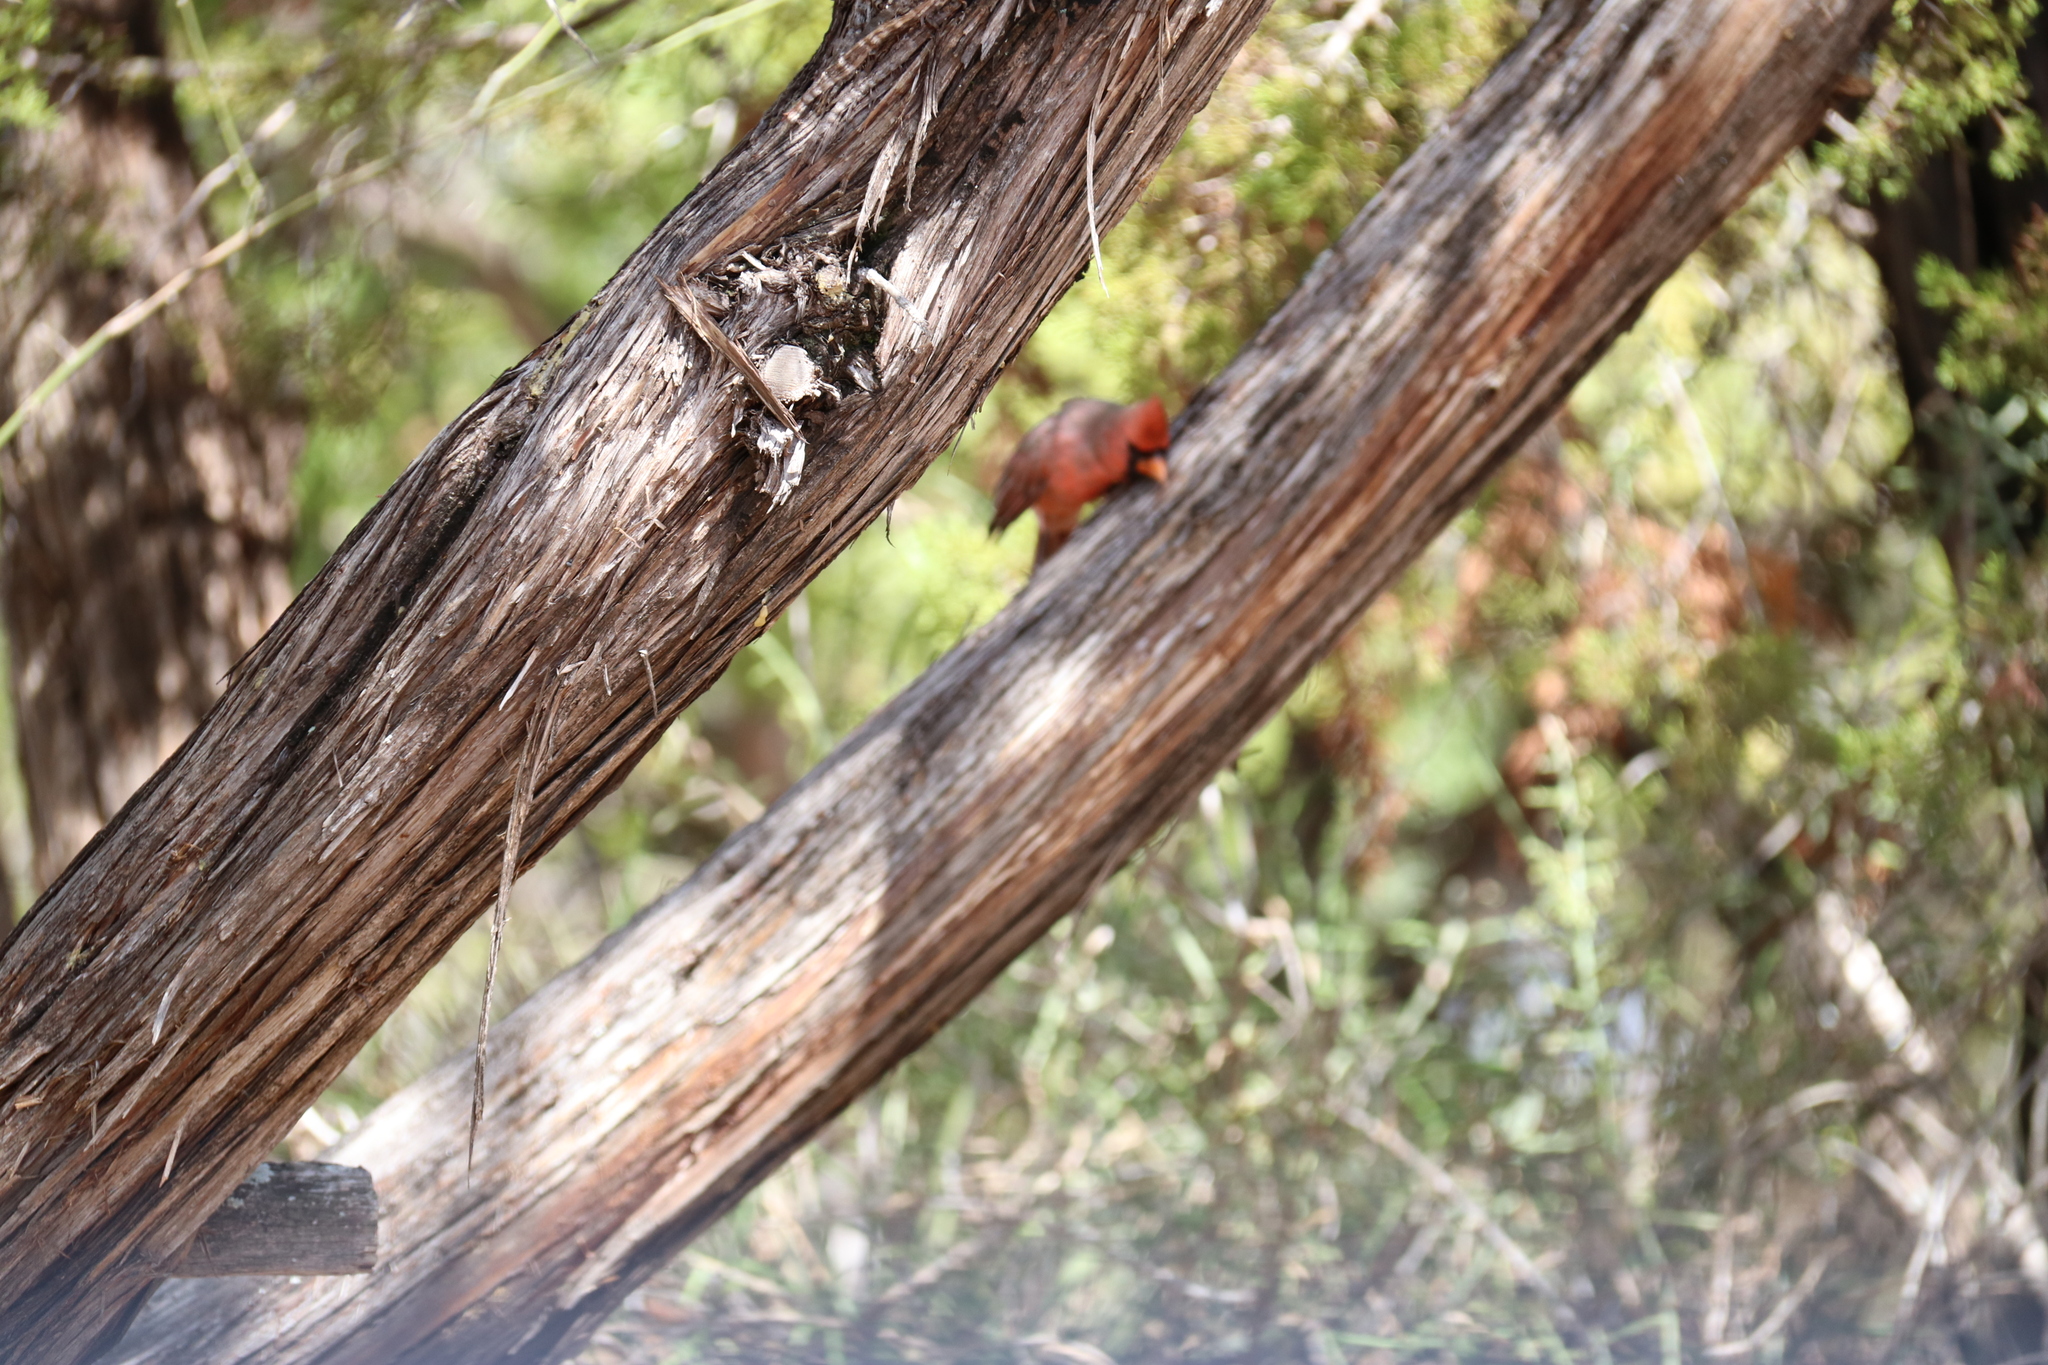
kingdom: Animalia
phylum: Chordata
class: Aves
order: Passeriformes
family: Cardinalidae
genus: Cardinalis
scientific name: Cardinalis cardinalis
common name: Northern cardinal
